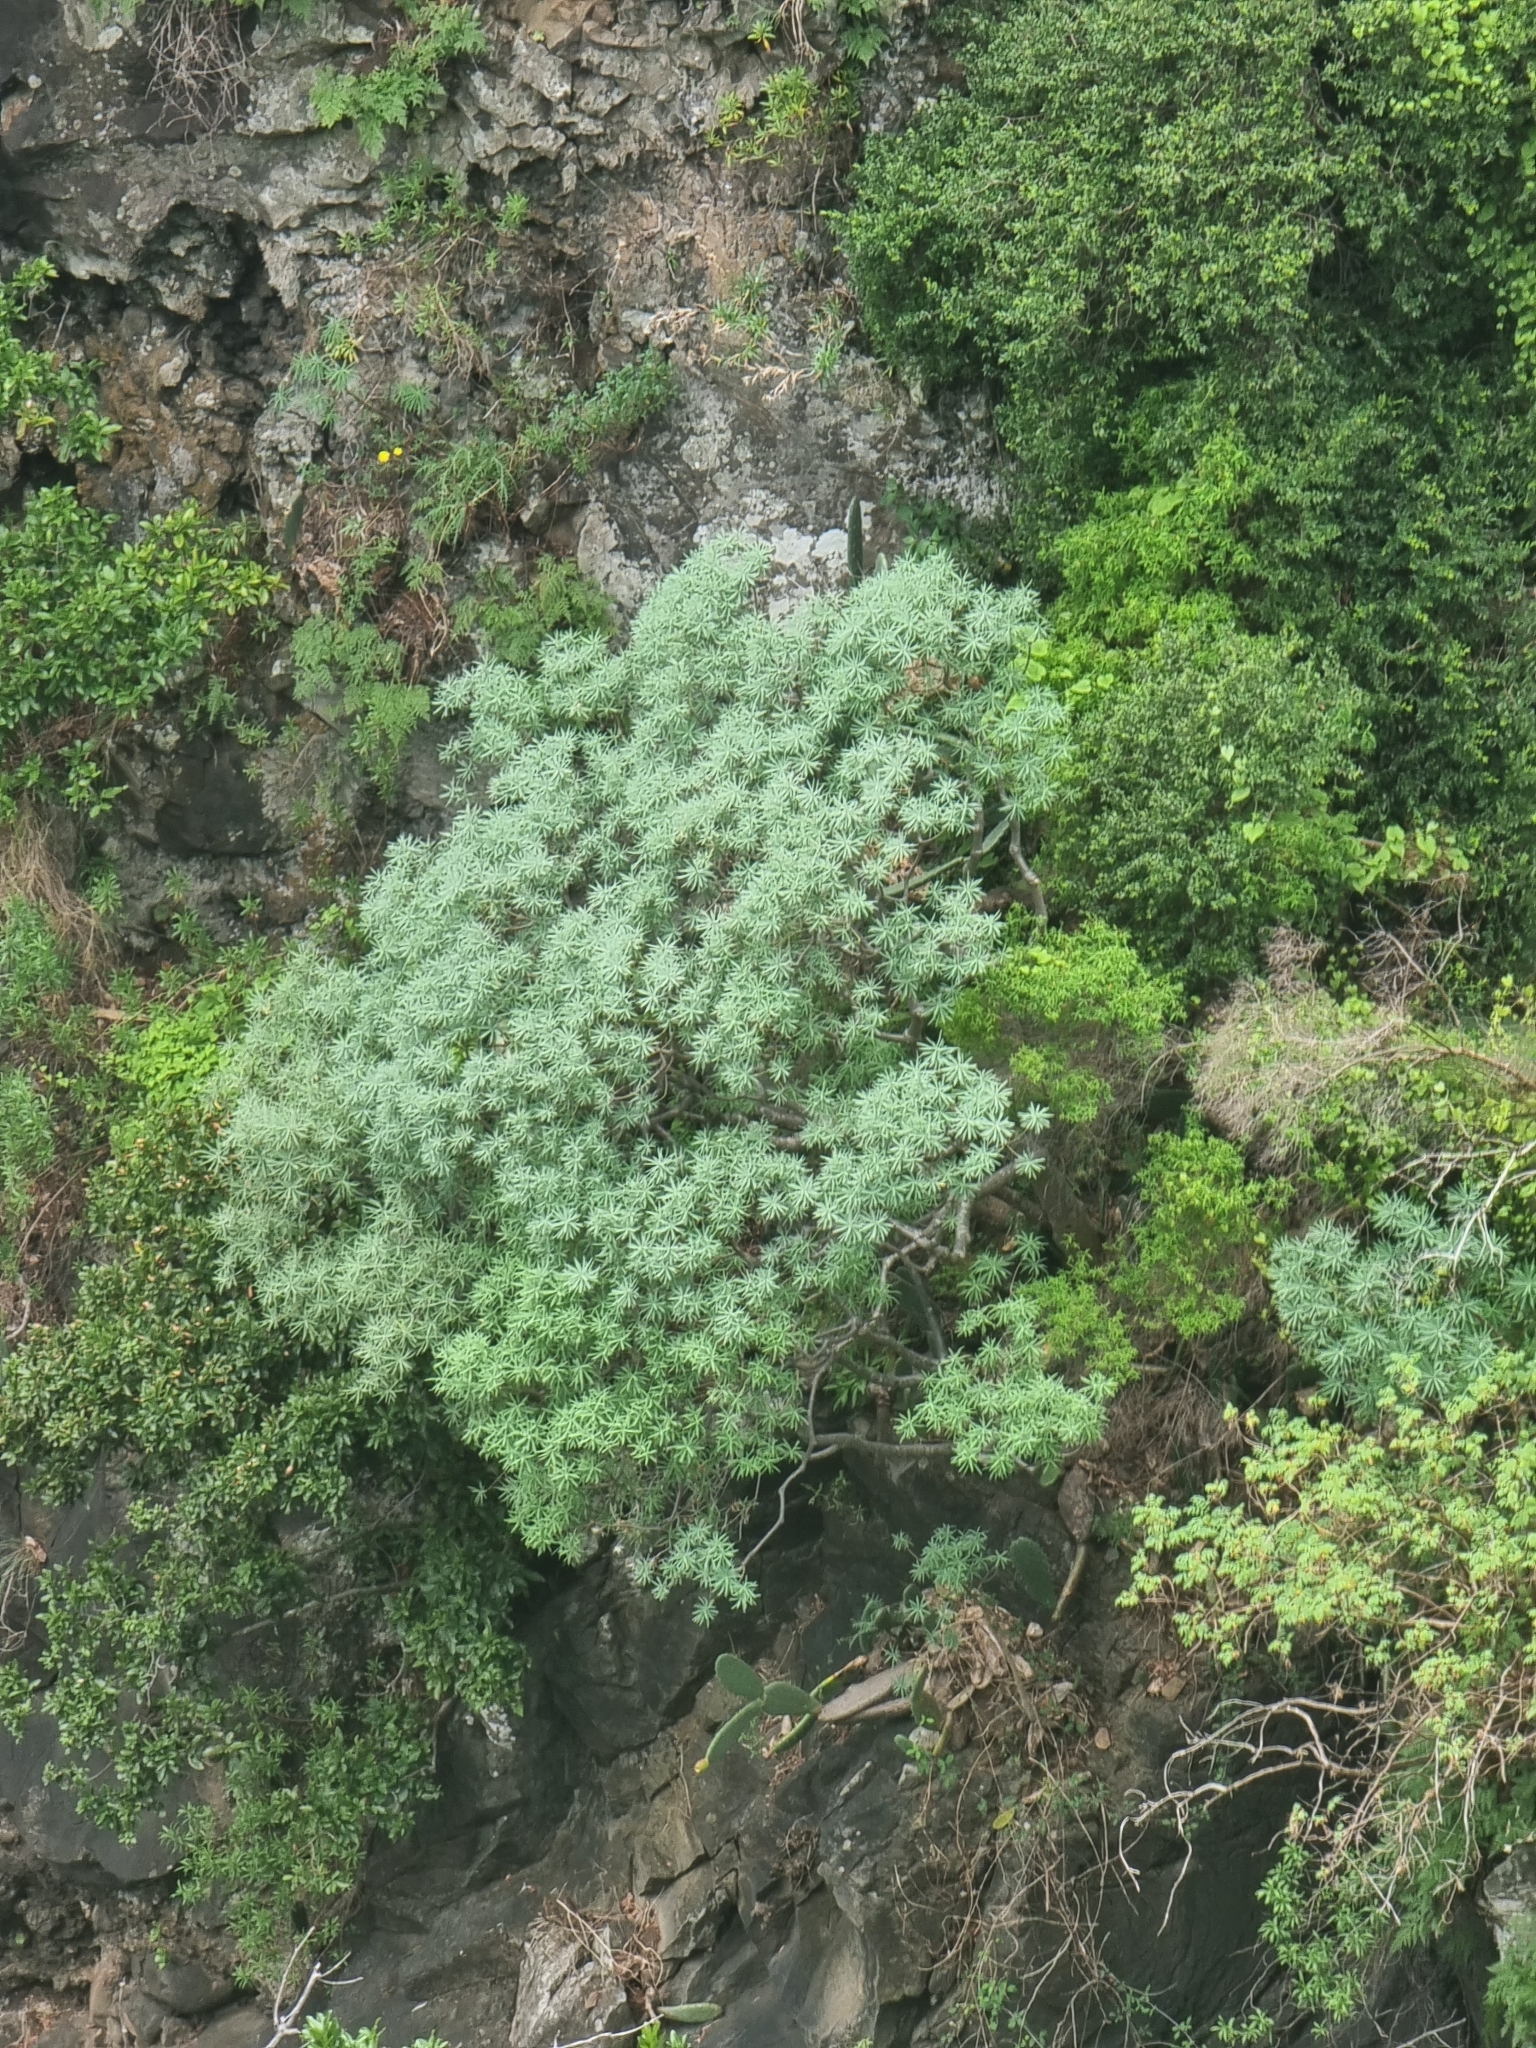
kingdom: Plantae
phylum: Tracheophyta
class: Magnoliopsida
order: Malpighiales
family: Euphorbiaceae
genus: Euphorbia
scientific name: Euphorbia piscatoria
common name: Fish-stunning spurge
